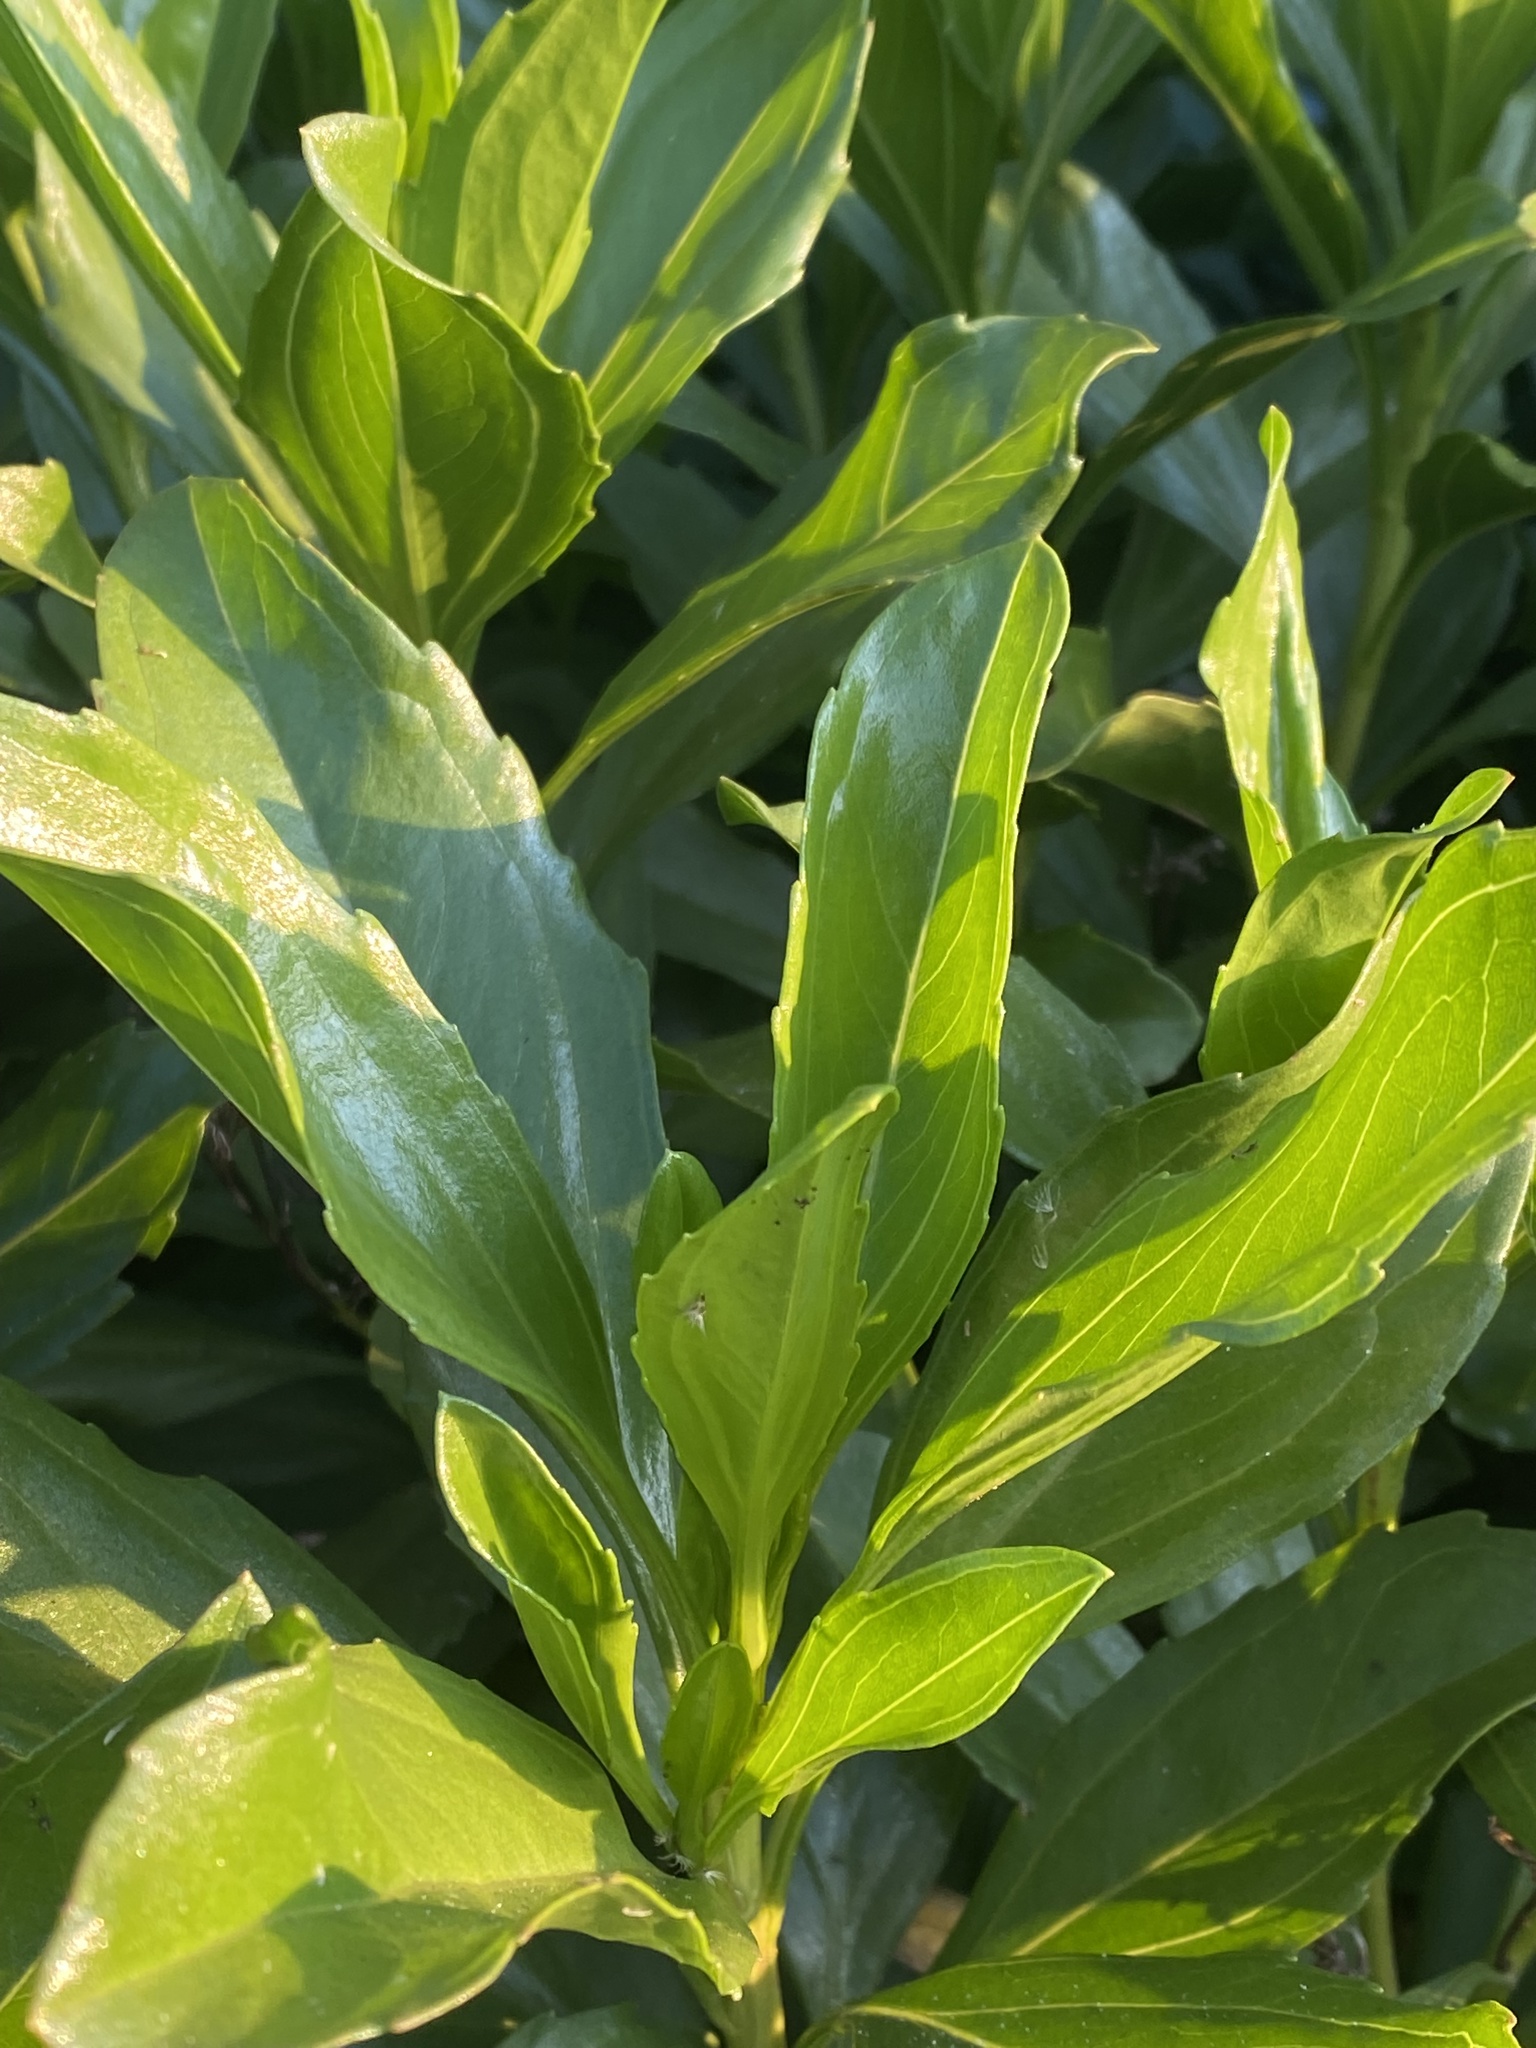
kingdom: Plantae
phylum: Tracheophyta
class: Magnoliopsida
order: Asterales
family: Asteraceae
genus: Psiadia
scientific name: Psiadia arguta
